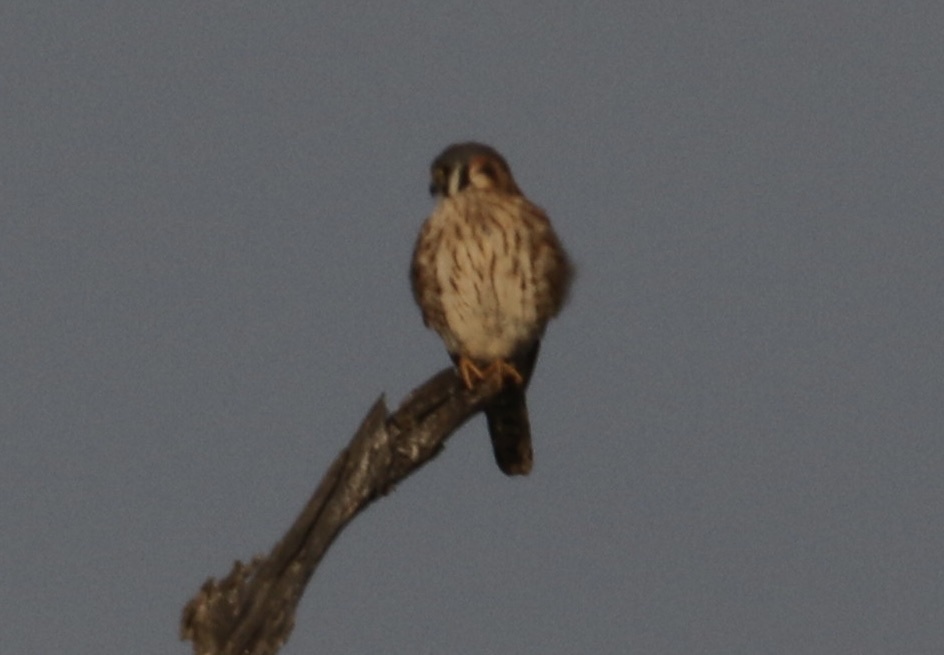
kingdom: Animalia
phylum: Chordata
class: Aves
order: Falconiformes
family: Falconidae
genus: Falco
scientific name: Falco sparverius
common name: American kestrel
